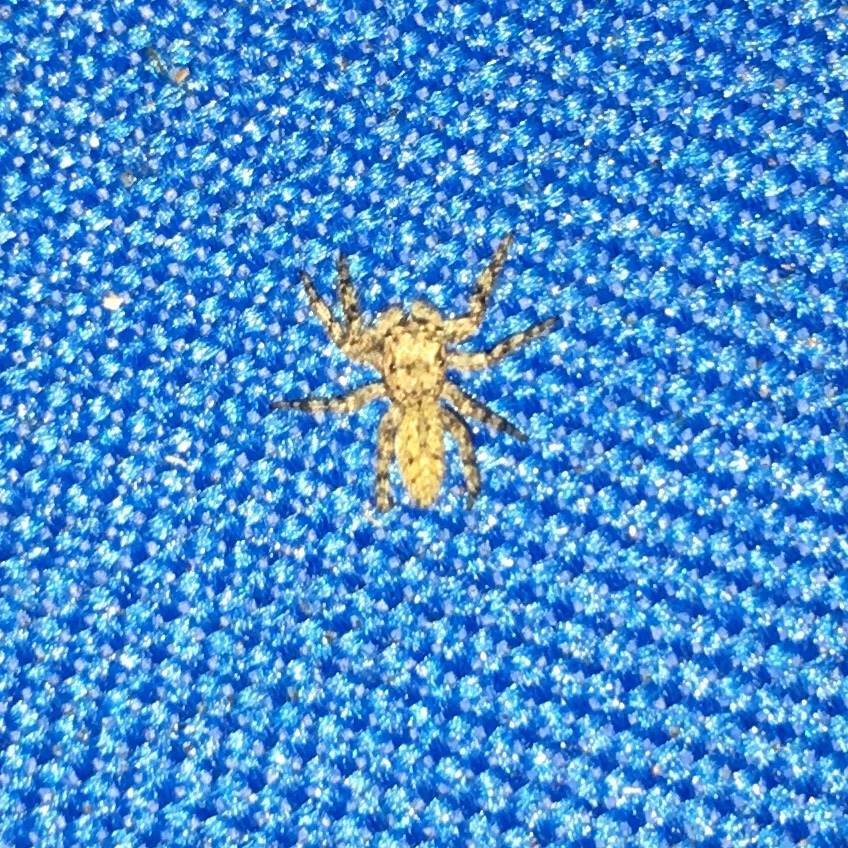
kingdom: Animalia
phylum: Arthropoda
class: Arachnida
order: Araneae
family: Salticidae
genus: Platycryptus
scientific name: Platycryptus undatus
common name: Tan jumping spider
